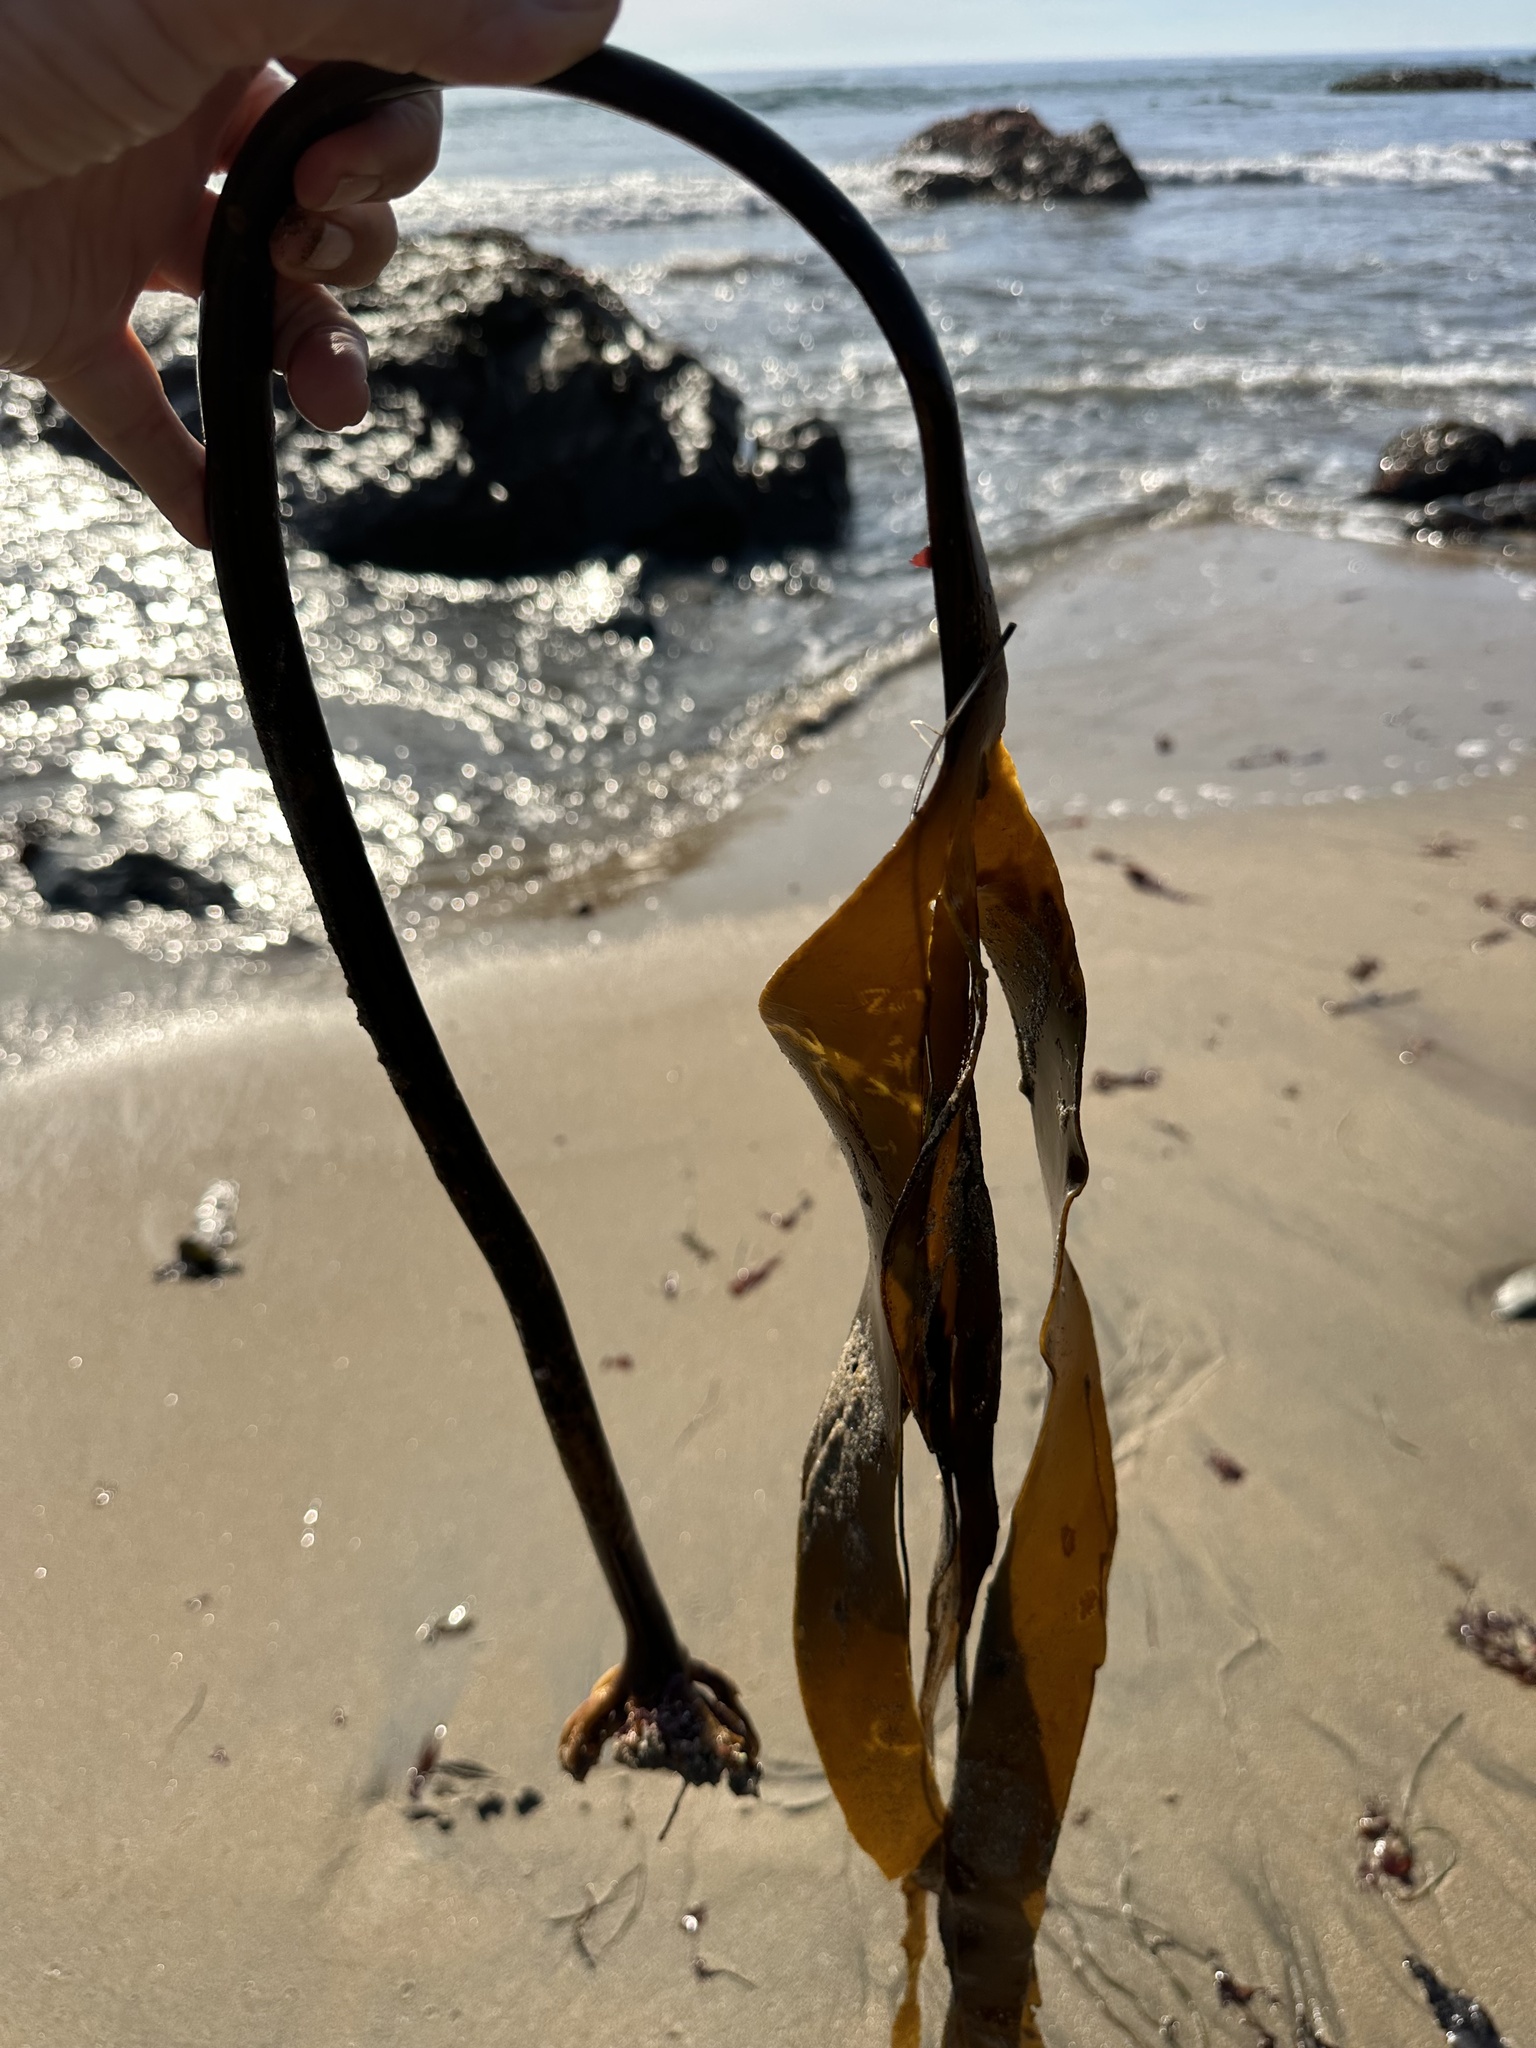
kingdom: Chromista
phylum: Ochrophyta
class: Phaeophyceae
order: Laminariales
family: Laminariaceae
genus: Laminaria
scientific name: Laminaria setchellii
